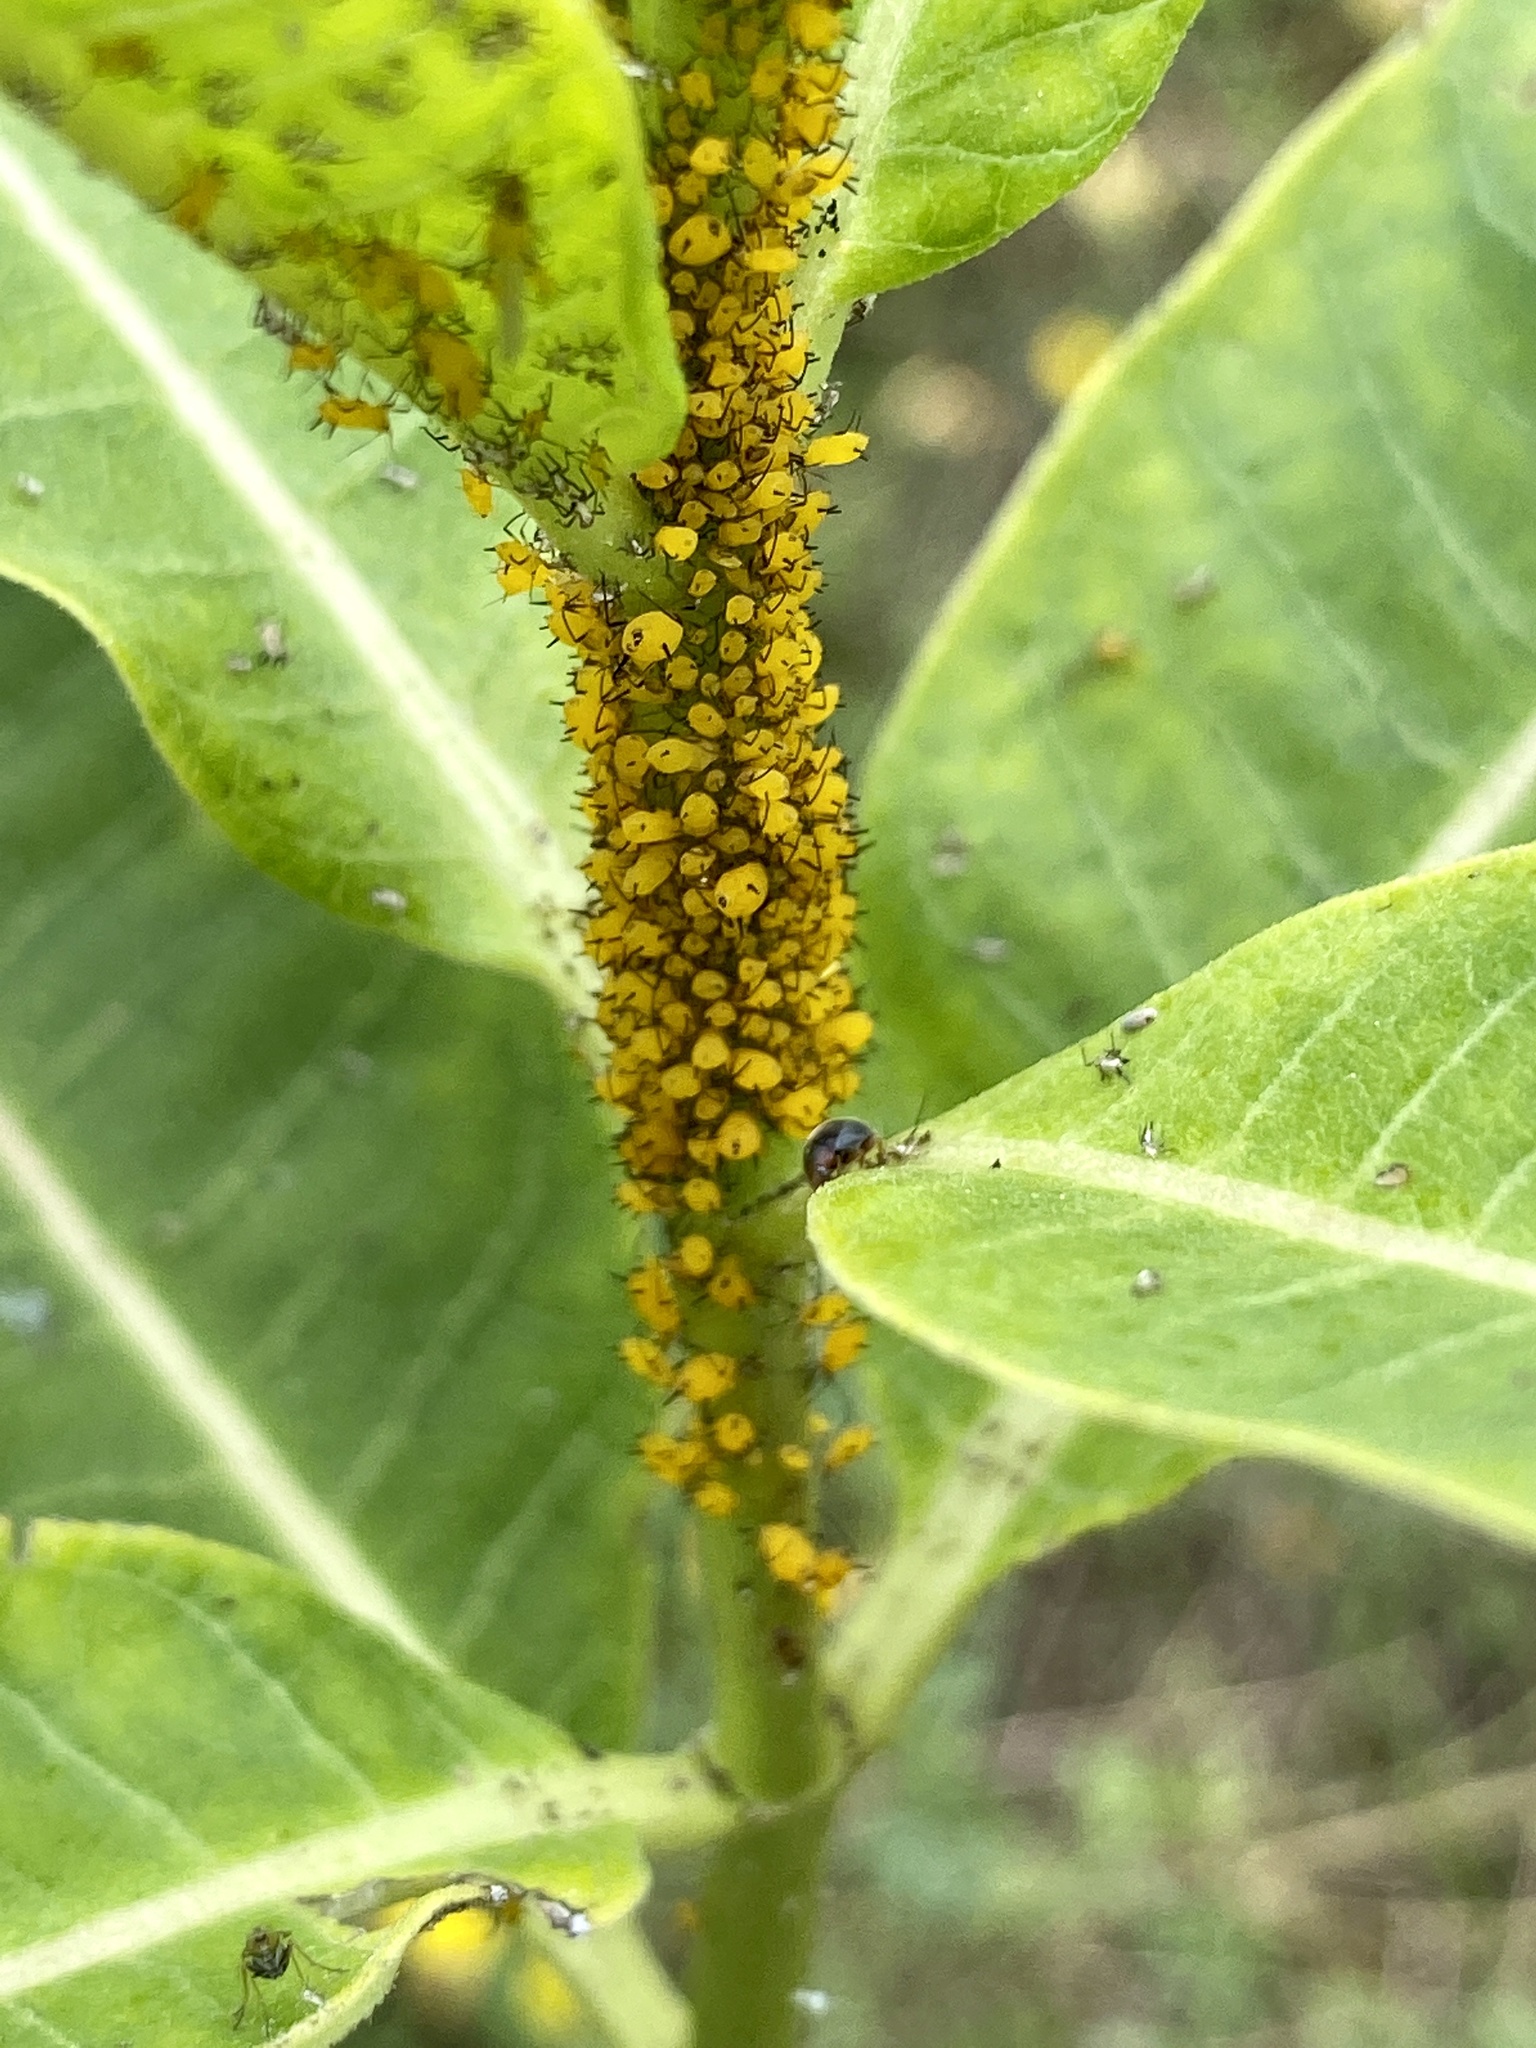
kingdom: Animalia
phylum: Arthropoda
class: Insecta
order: Hemiptera
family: Aphididae
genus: Aphis
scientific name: Aphis nerii
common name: Oleander aphid
